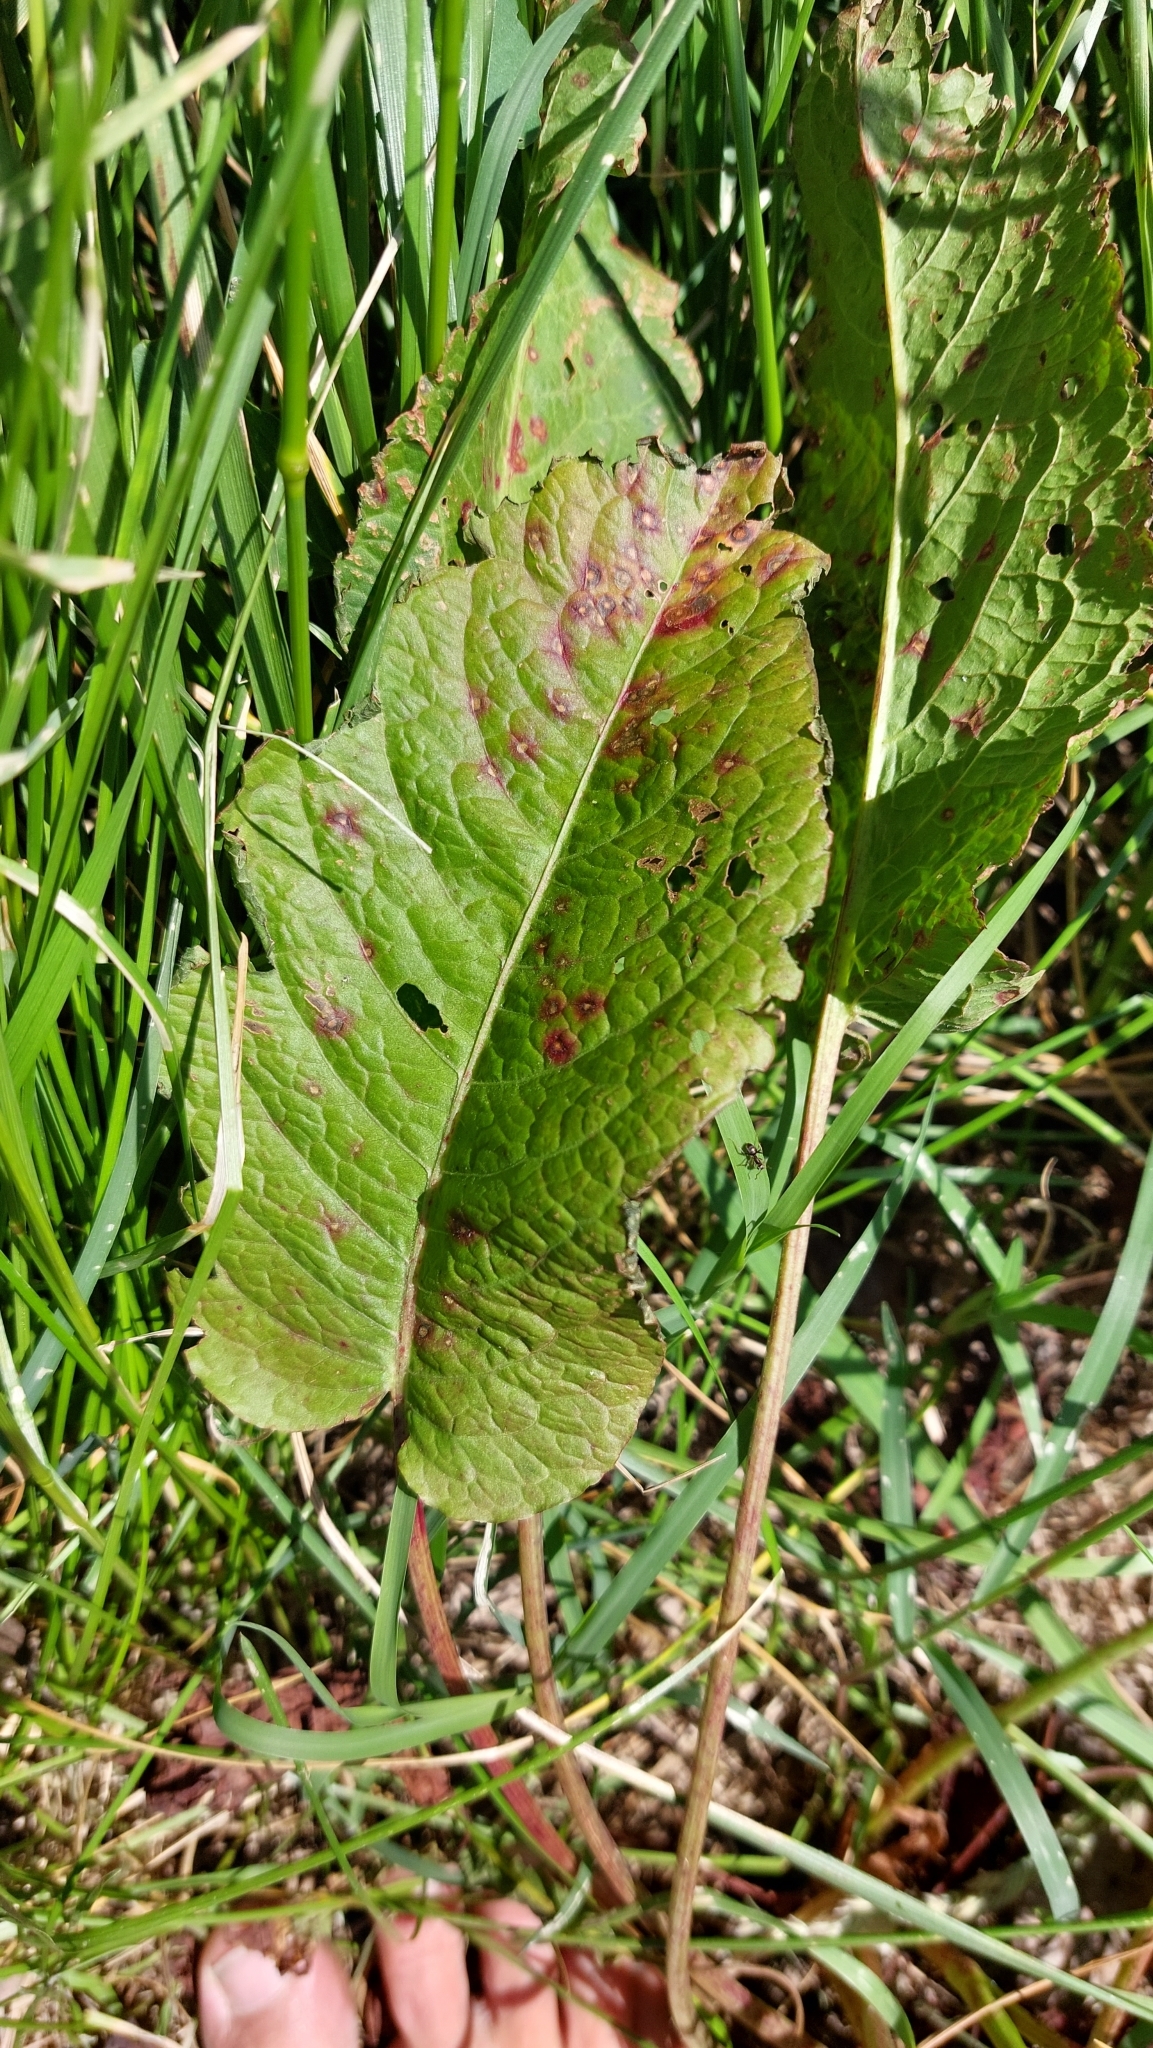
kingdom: Plantae
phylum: Tracheophyta
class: Magnoliopsida
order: Caryophyllales
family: Polygonaceae
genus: Rumex
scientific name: Rumex obtusifolius
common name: Bitter dock
